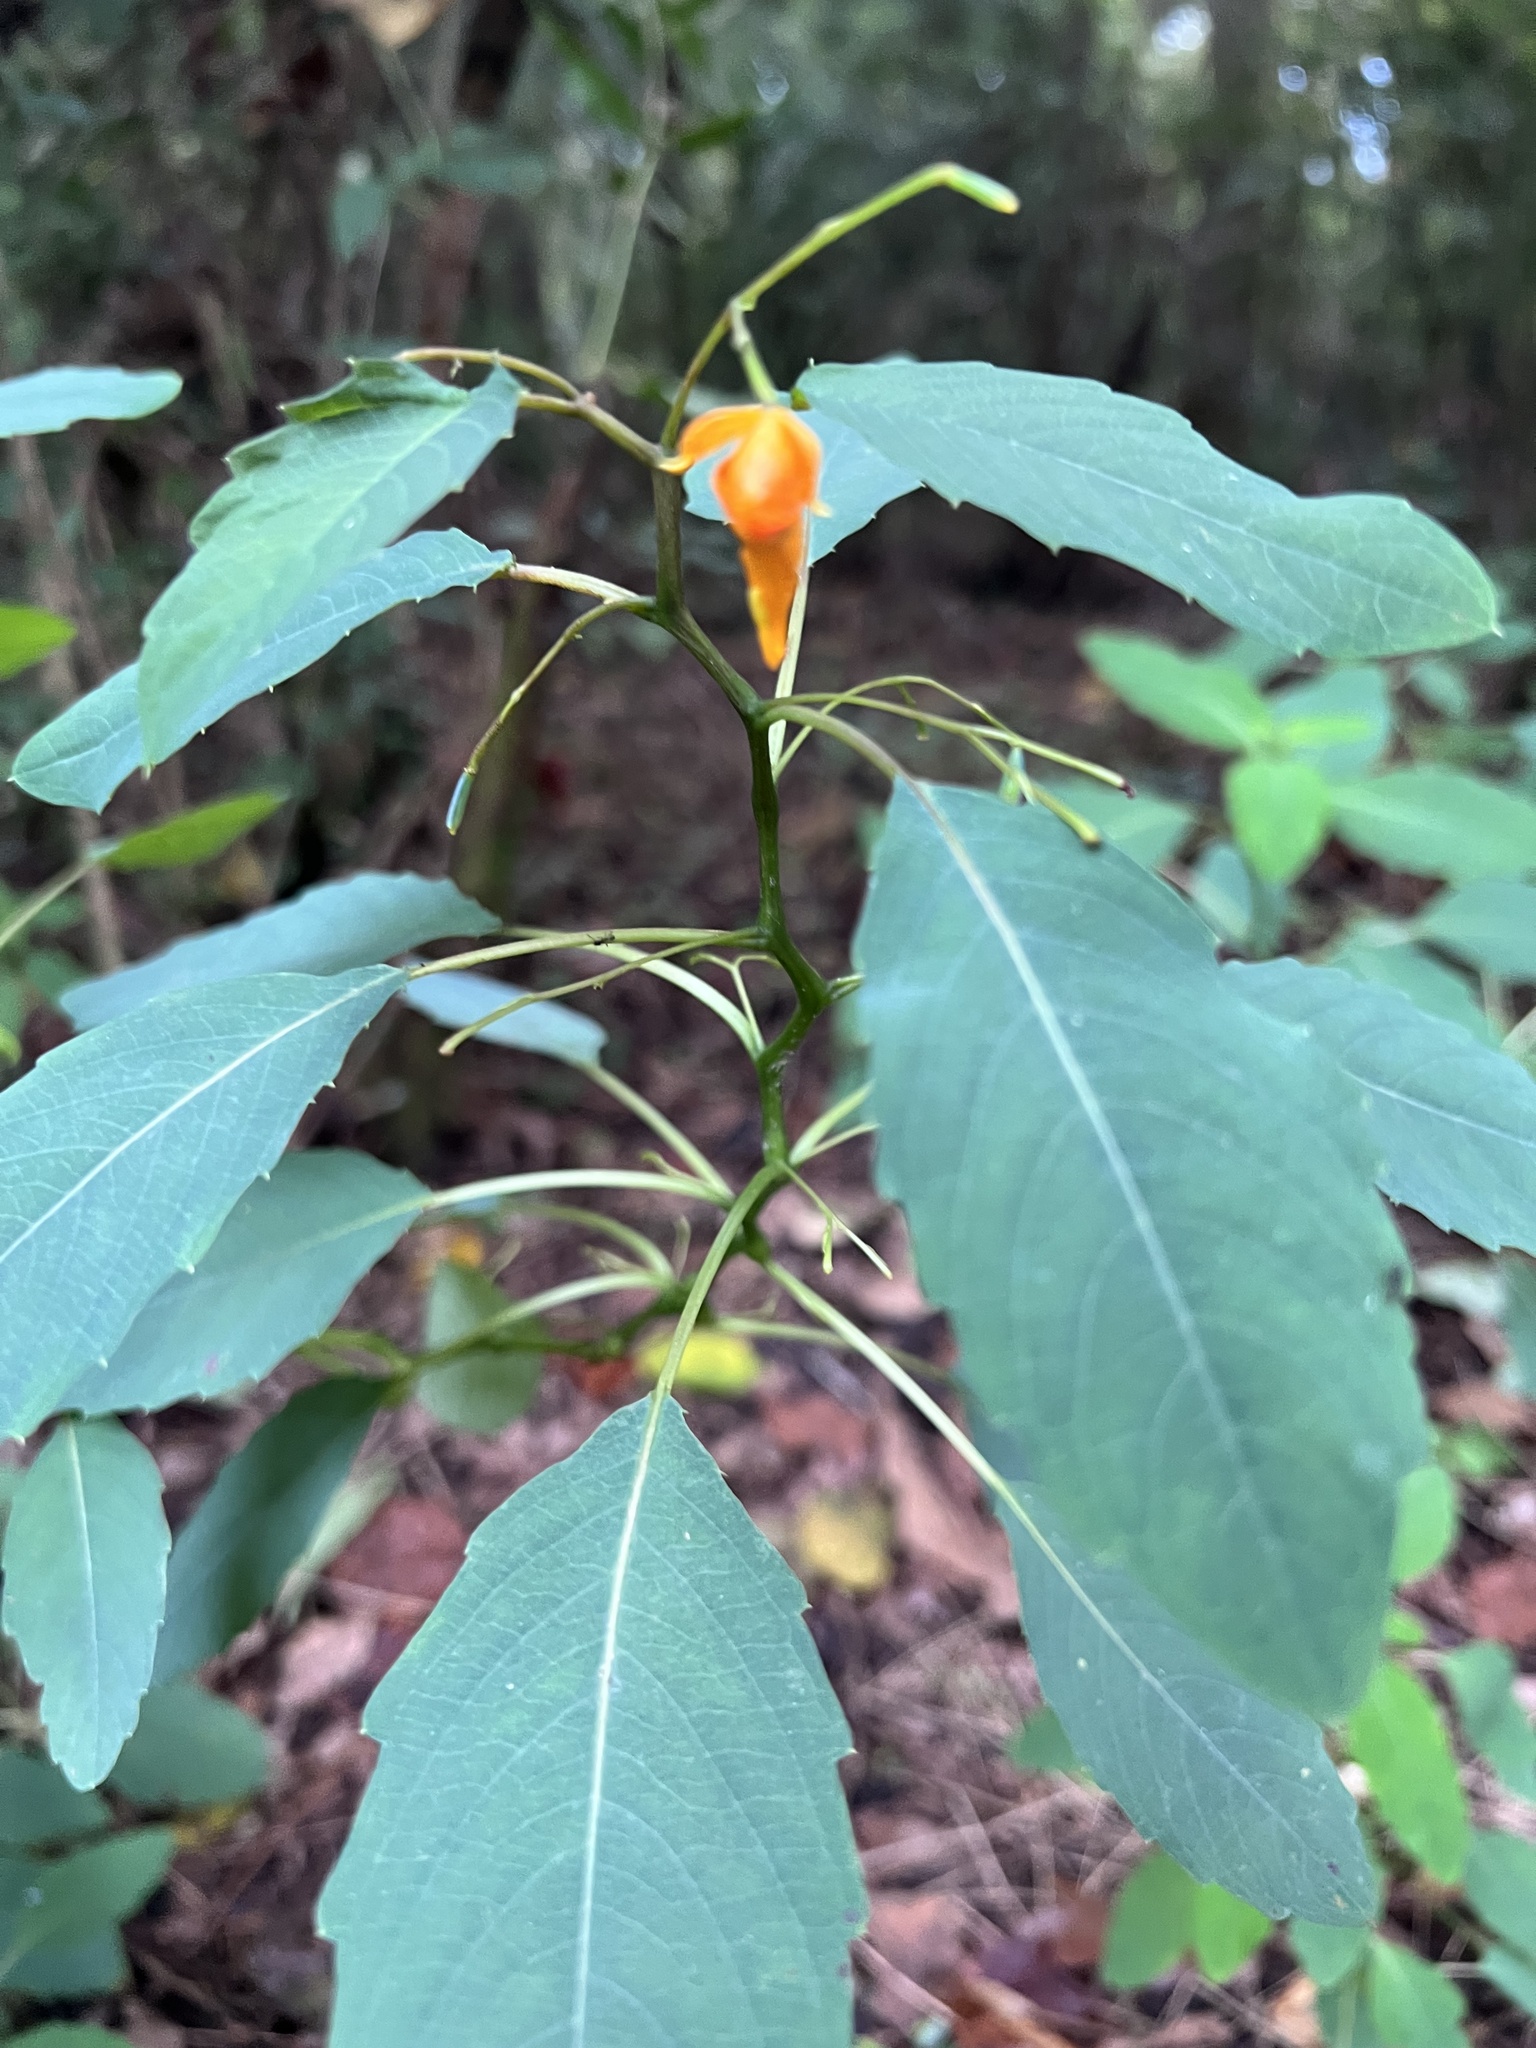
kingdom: Plantae
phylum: Tracheophyta
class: Magnoliopsida
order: Ericales
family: Balsaminaceae
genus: Impatiens
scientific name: Impatiens capensis
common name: Orange balsam
